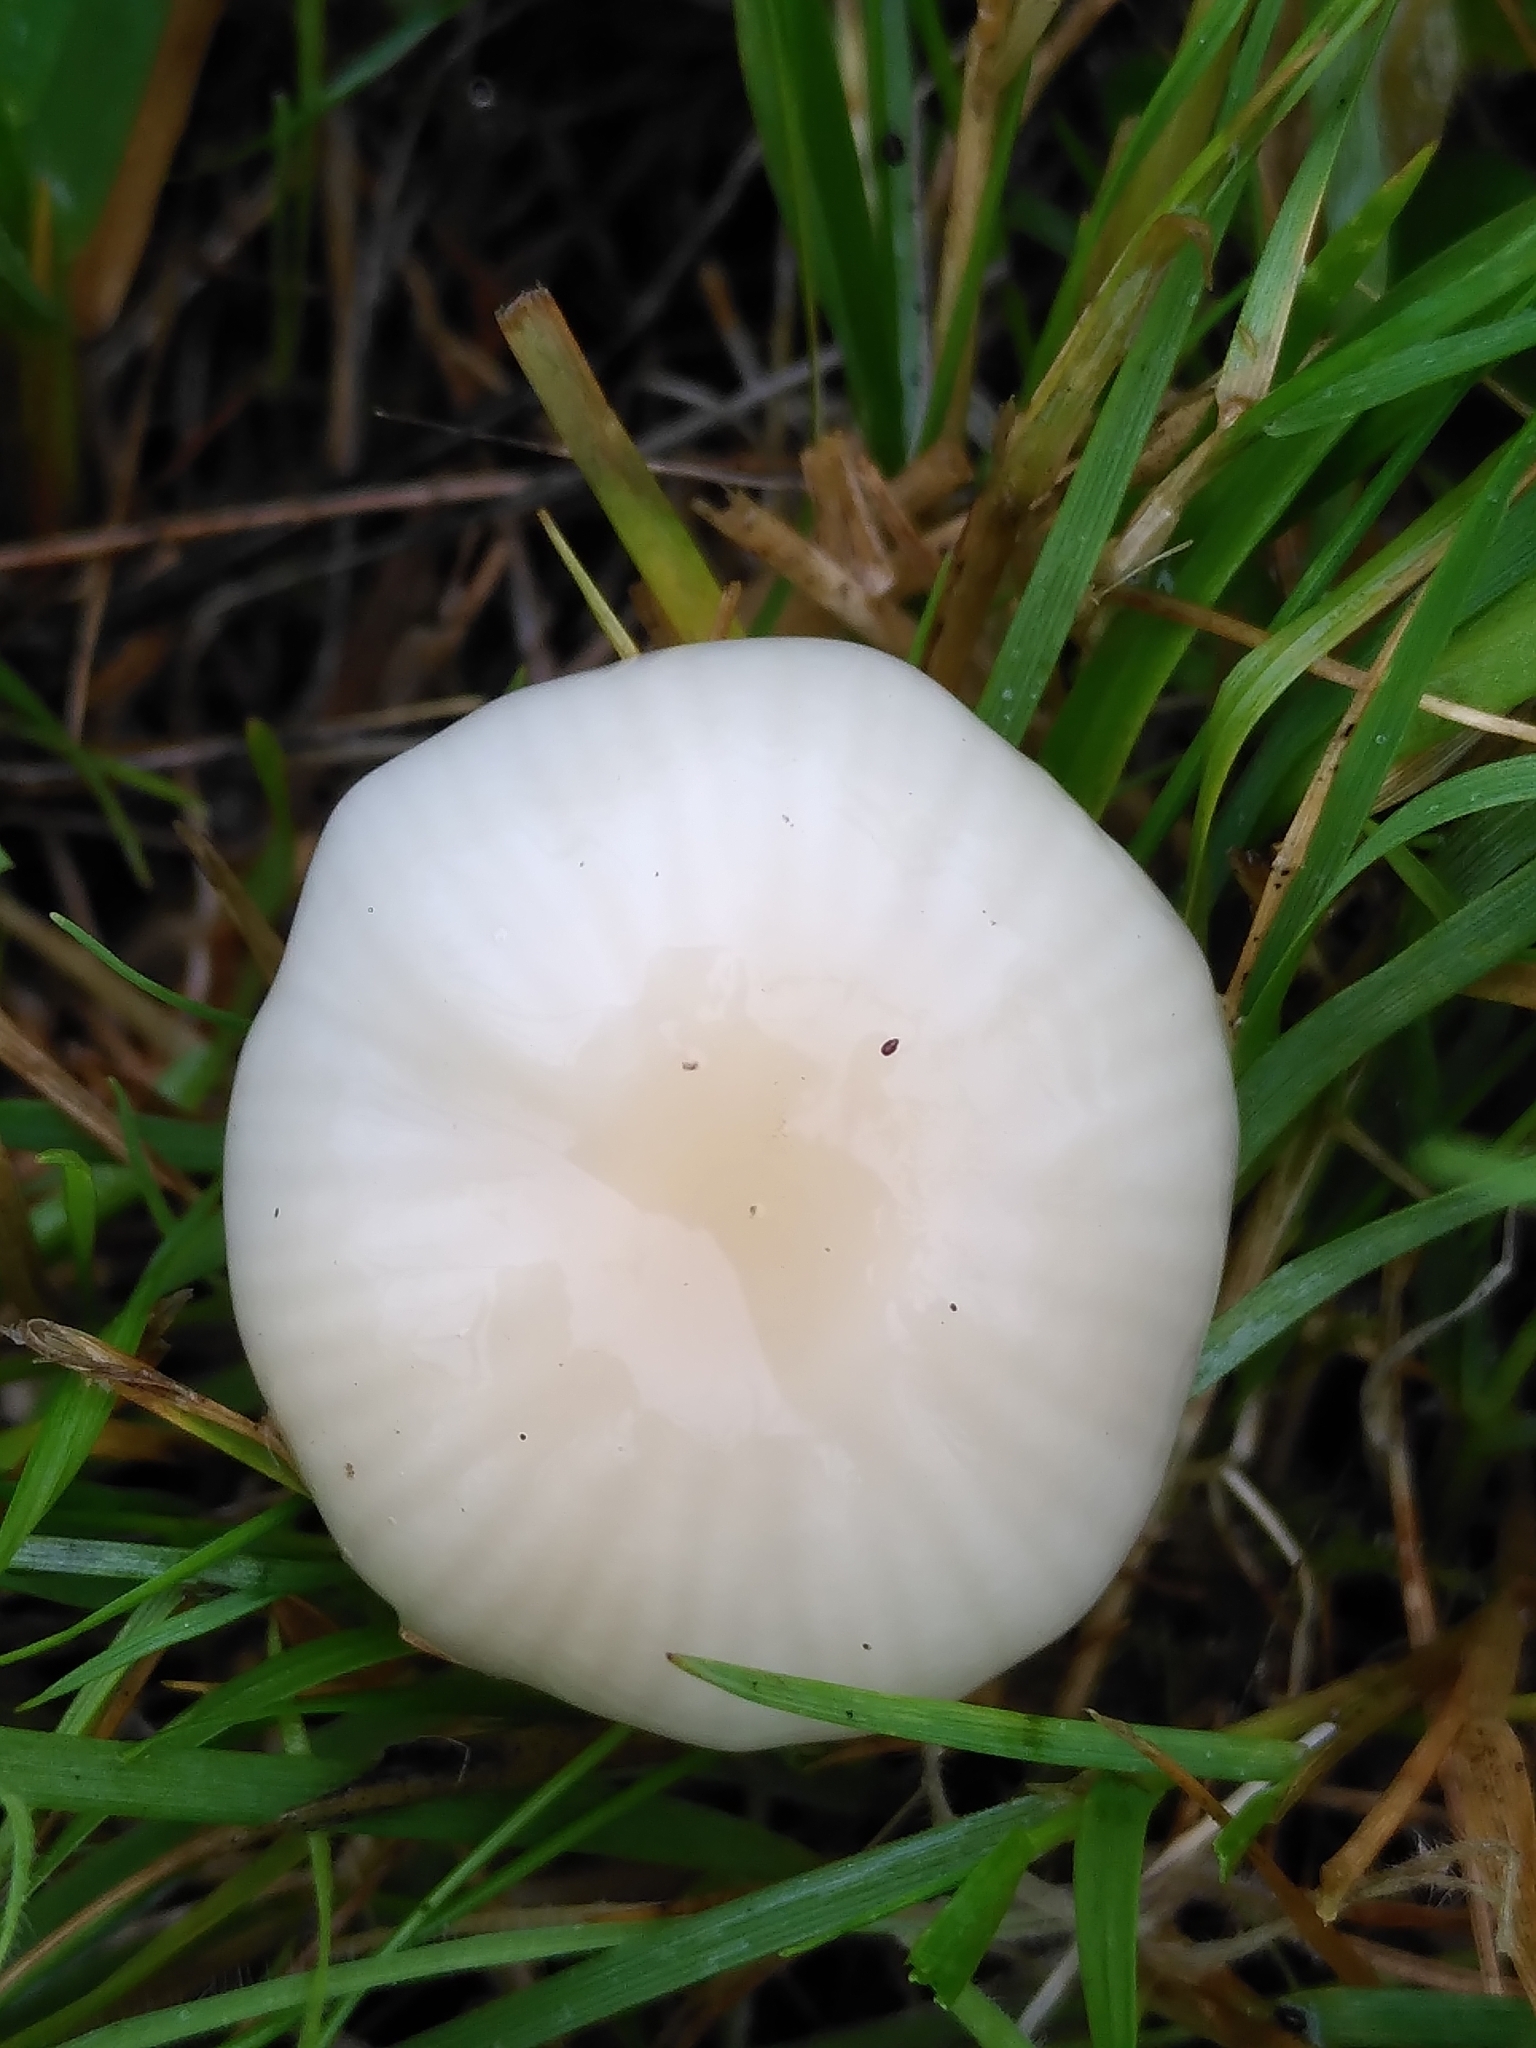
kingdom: Fungi
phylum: Basidiomycota
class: Agaricomycetes
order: Agaricales
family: Hygrophoraceae
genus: Cuphophyllus
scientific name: Cuphophyllus virgineus
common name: Snowy waxcap
